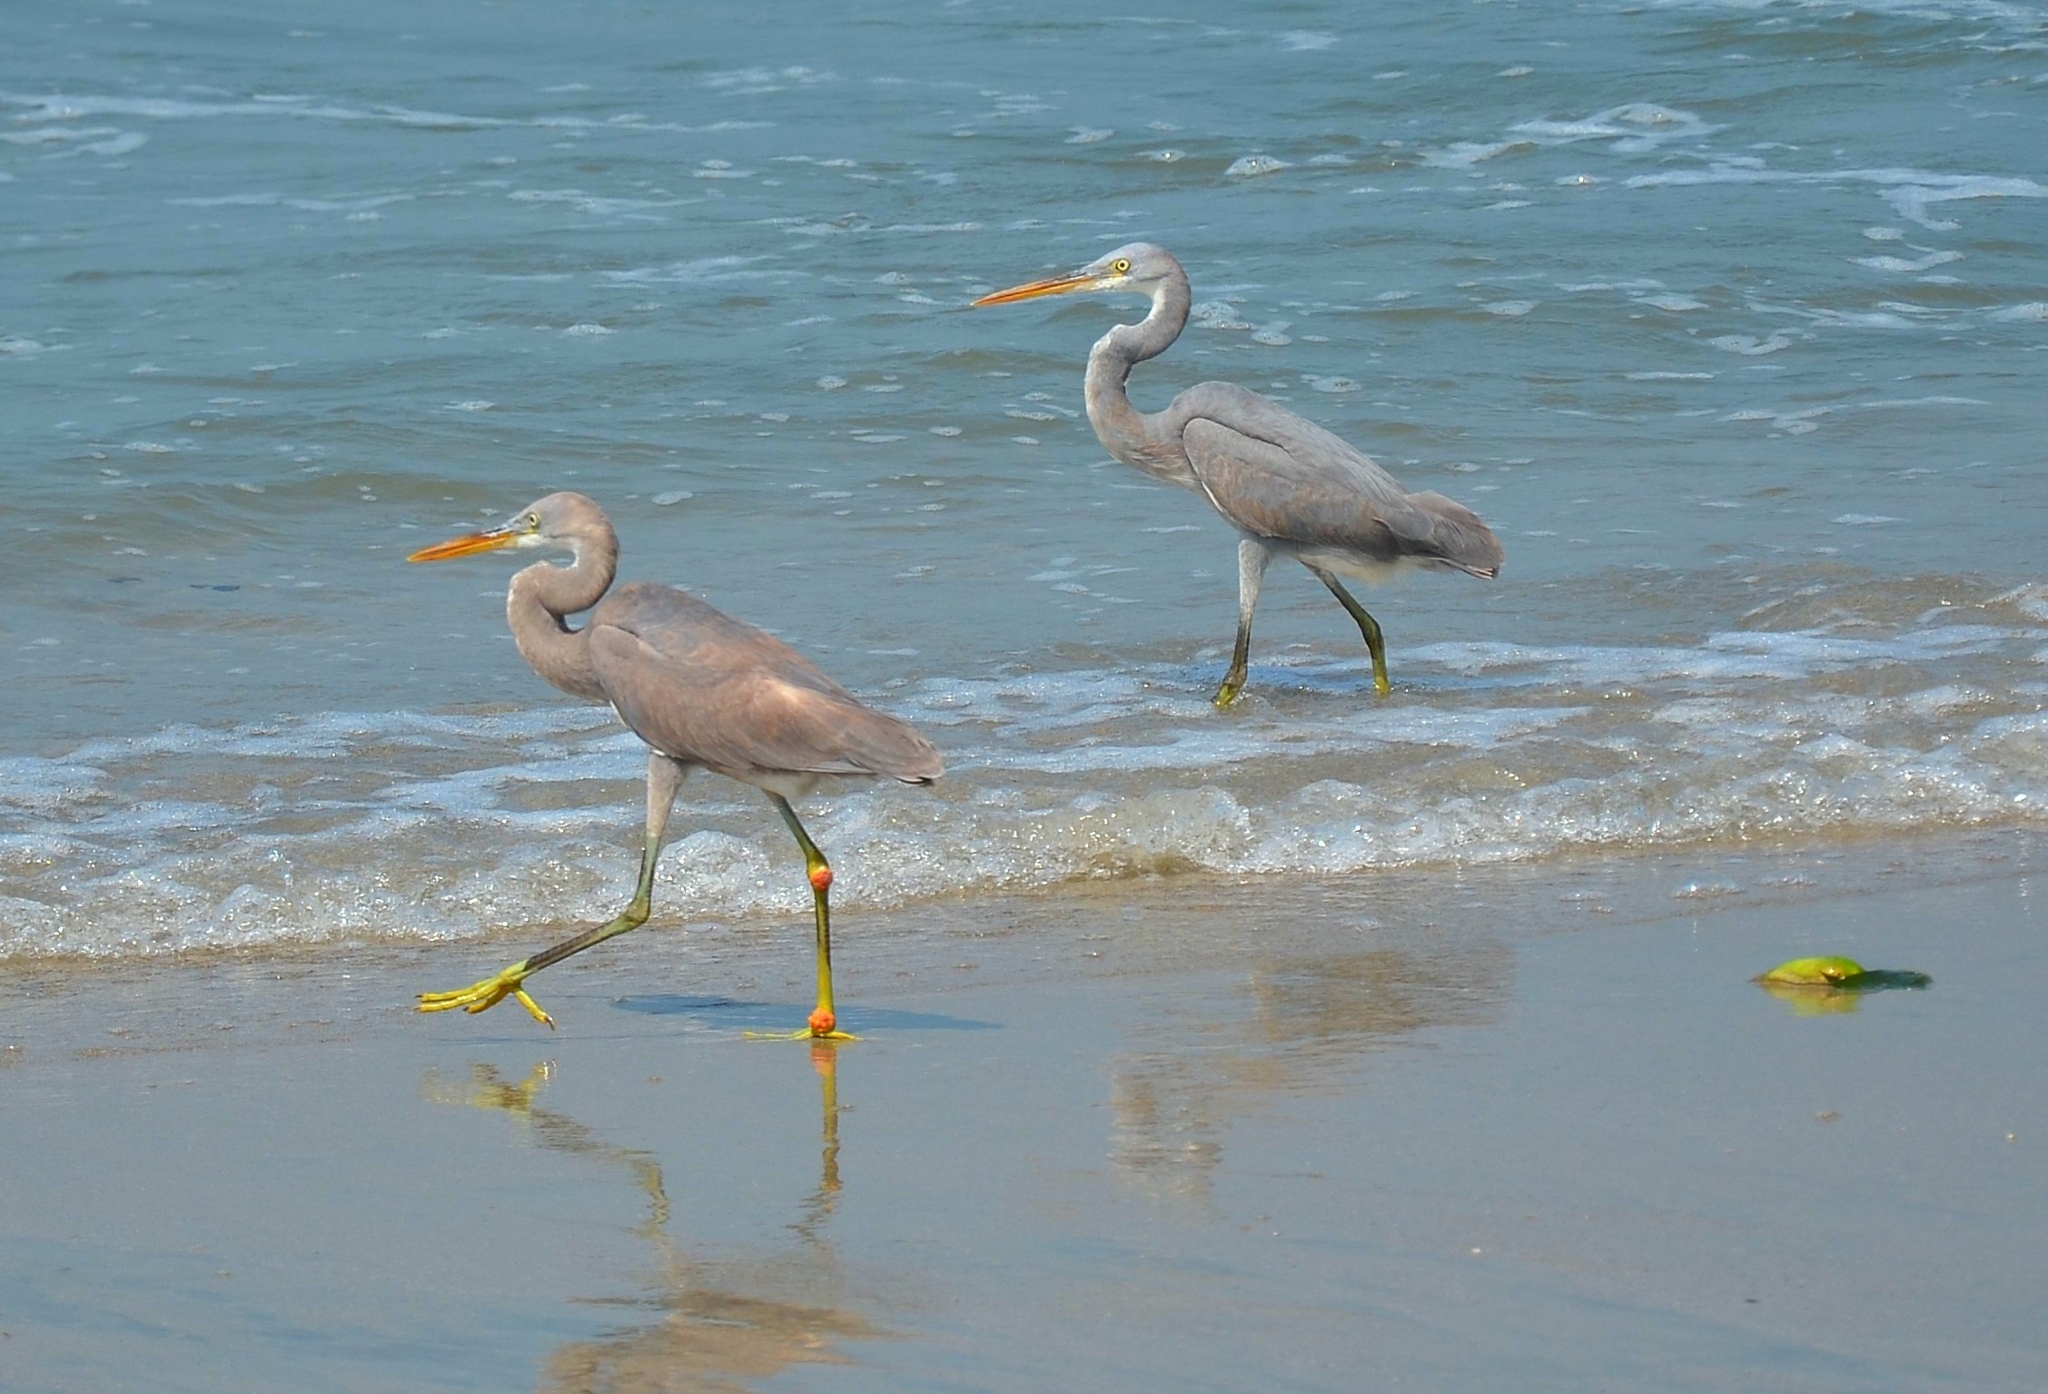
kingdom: Animalia
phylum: Chordata
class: Aves
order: Pelecaniformes
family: Ardeidae
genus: Egretta
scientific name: Egretta gularis
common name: Western reef-heron
